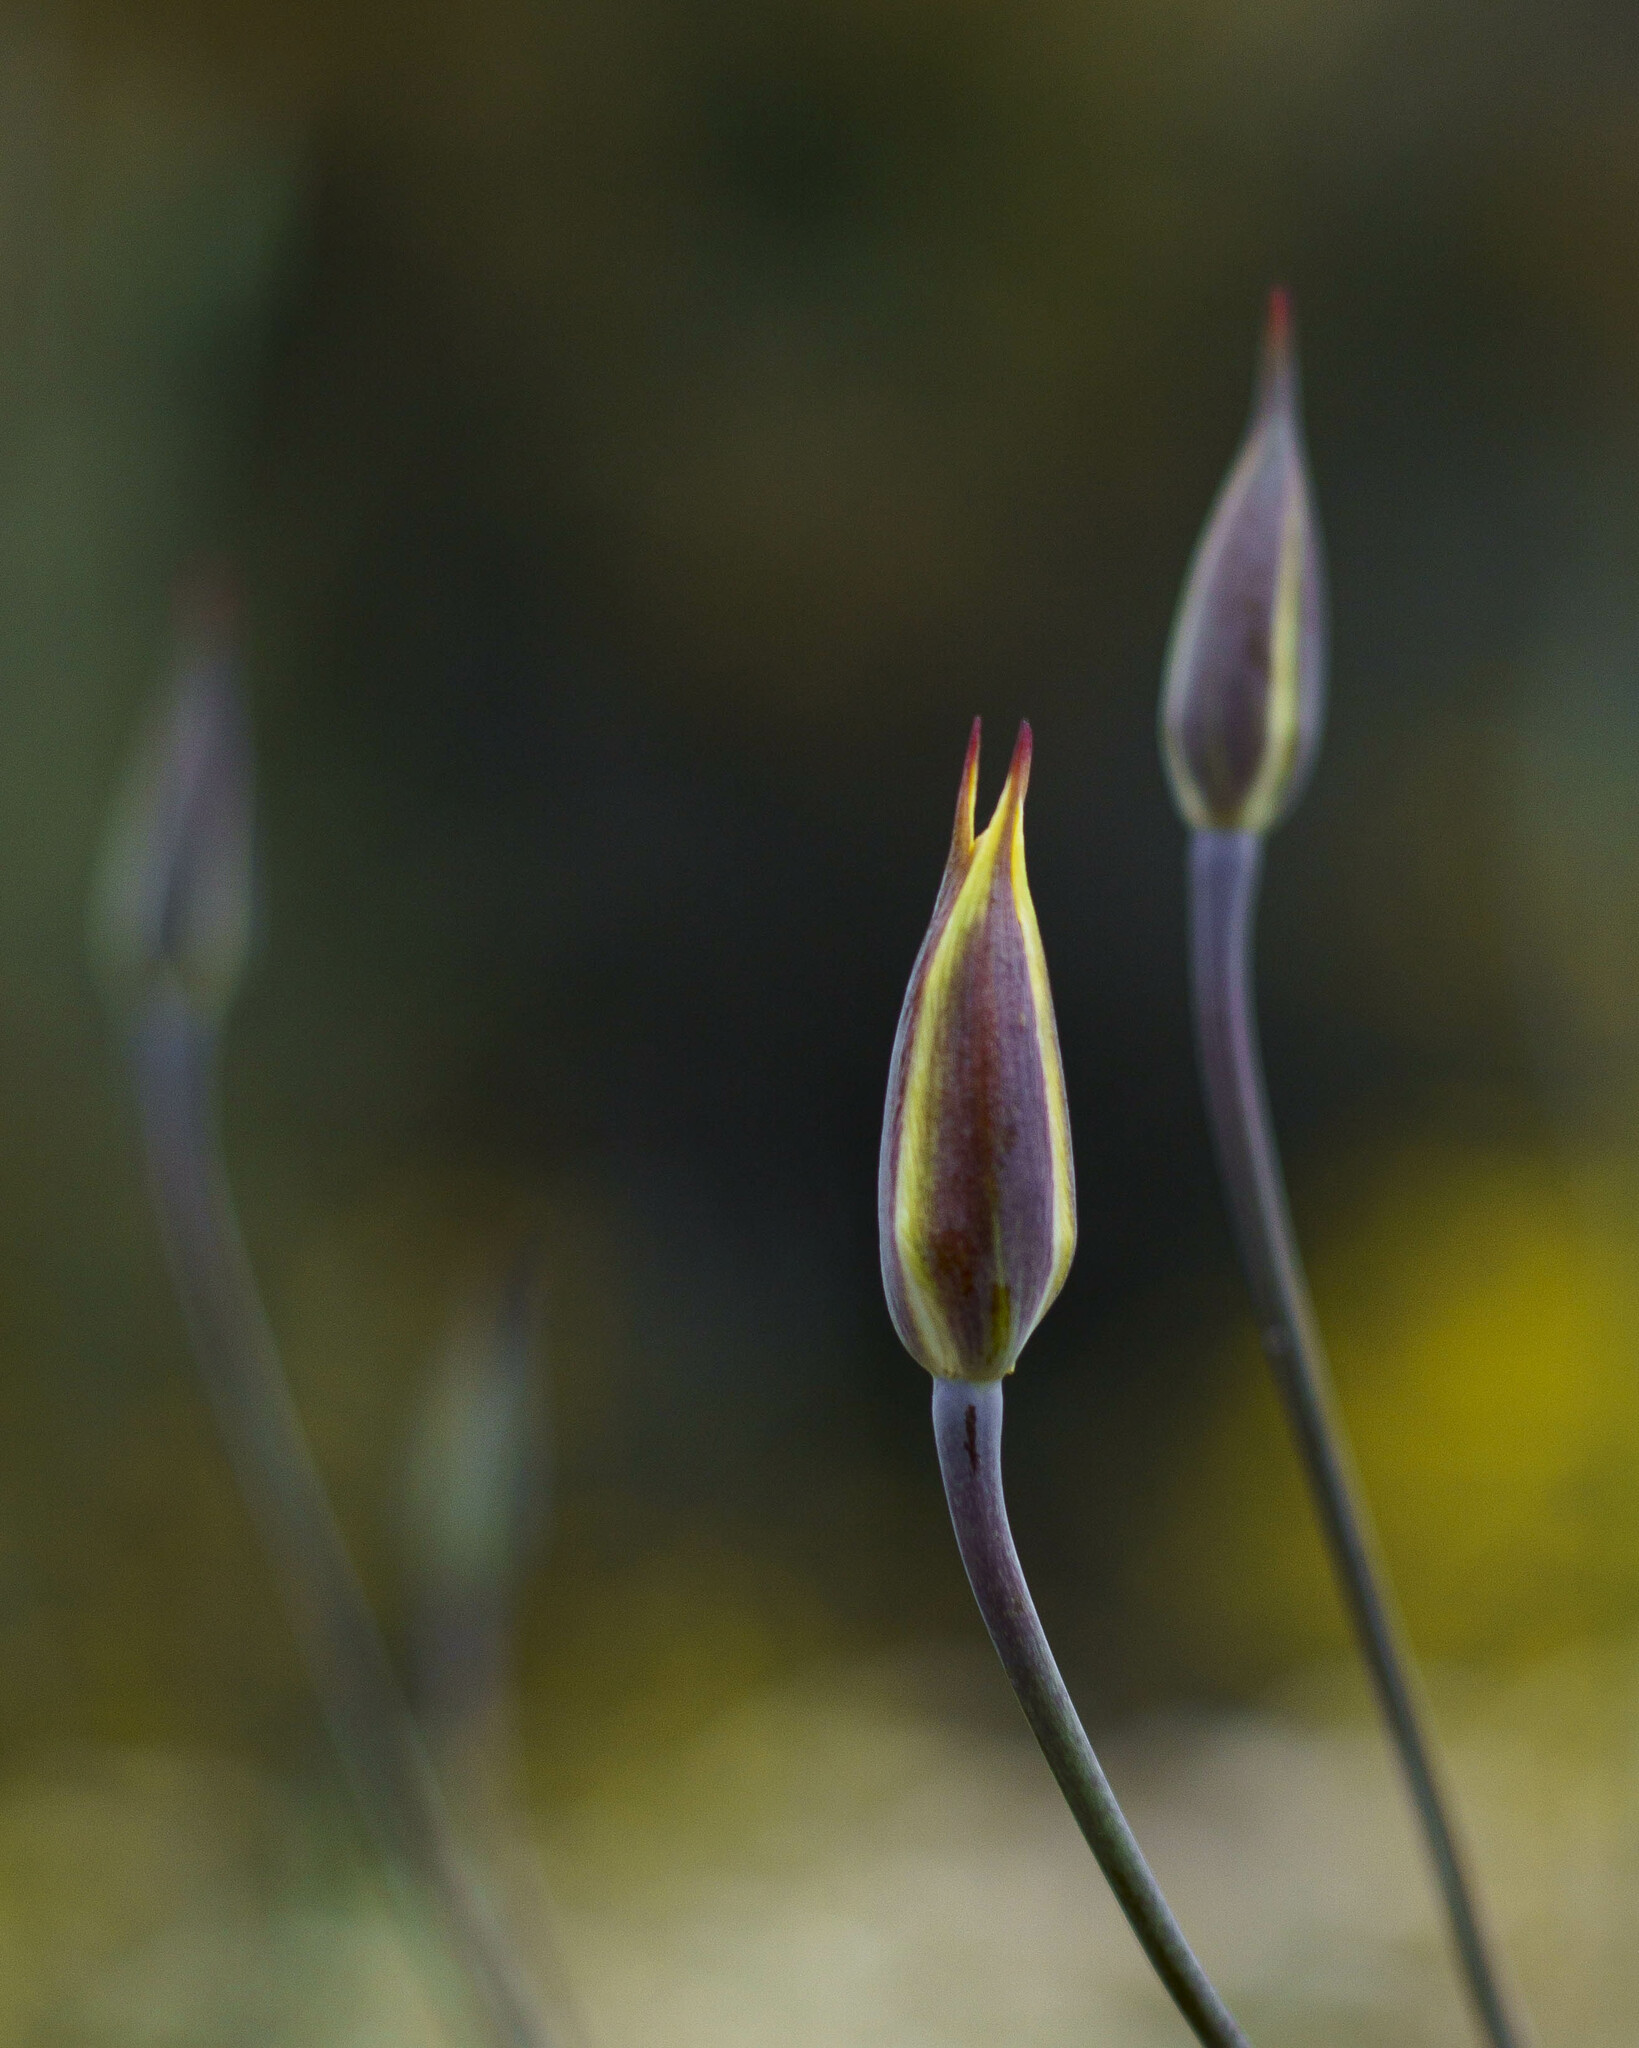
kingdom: Plantae
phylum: Tracheophyta
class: Liliopsida
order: Liliales
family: Liliaceae
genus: Calochortus
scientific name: Calochortus weedii
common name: Weed's mariposa-lily
